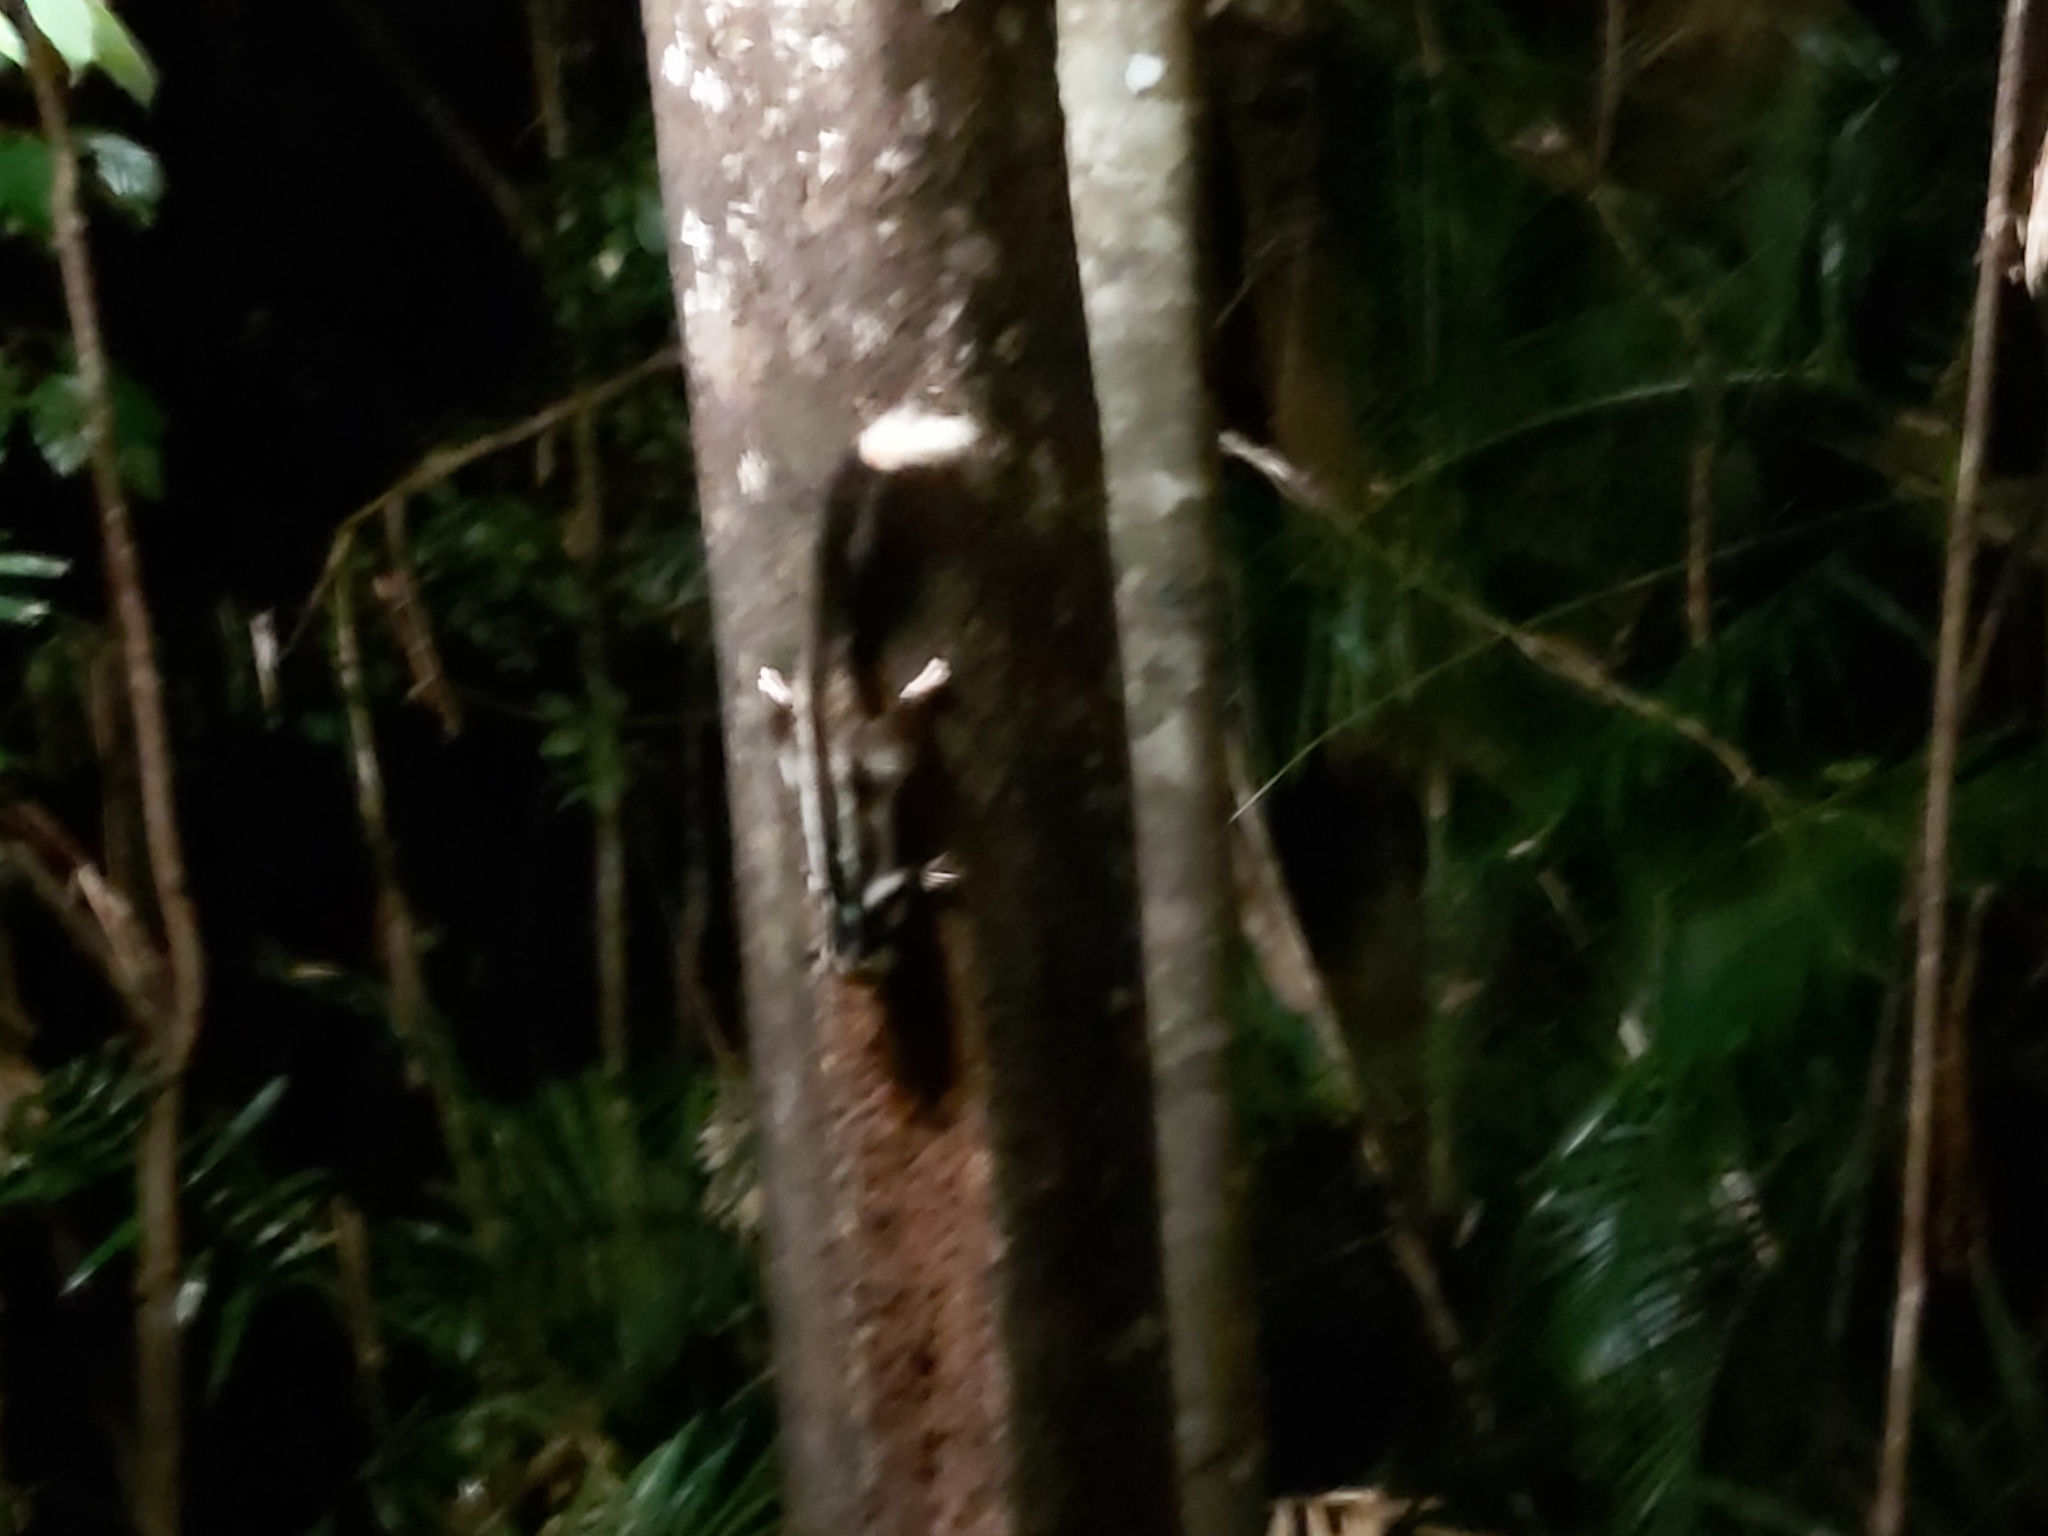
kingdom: Animalia
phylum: Chordata
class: Mammalia
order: Diprotodontia
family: Petauridae
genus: Dactylopsila
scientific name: Dactylopsila trivirgata
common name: Striped possum
